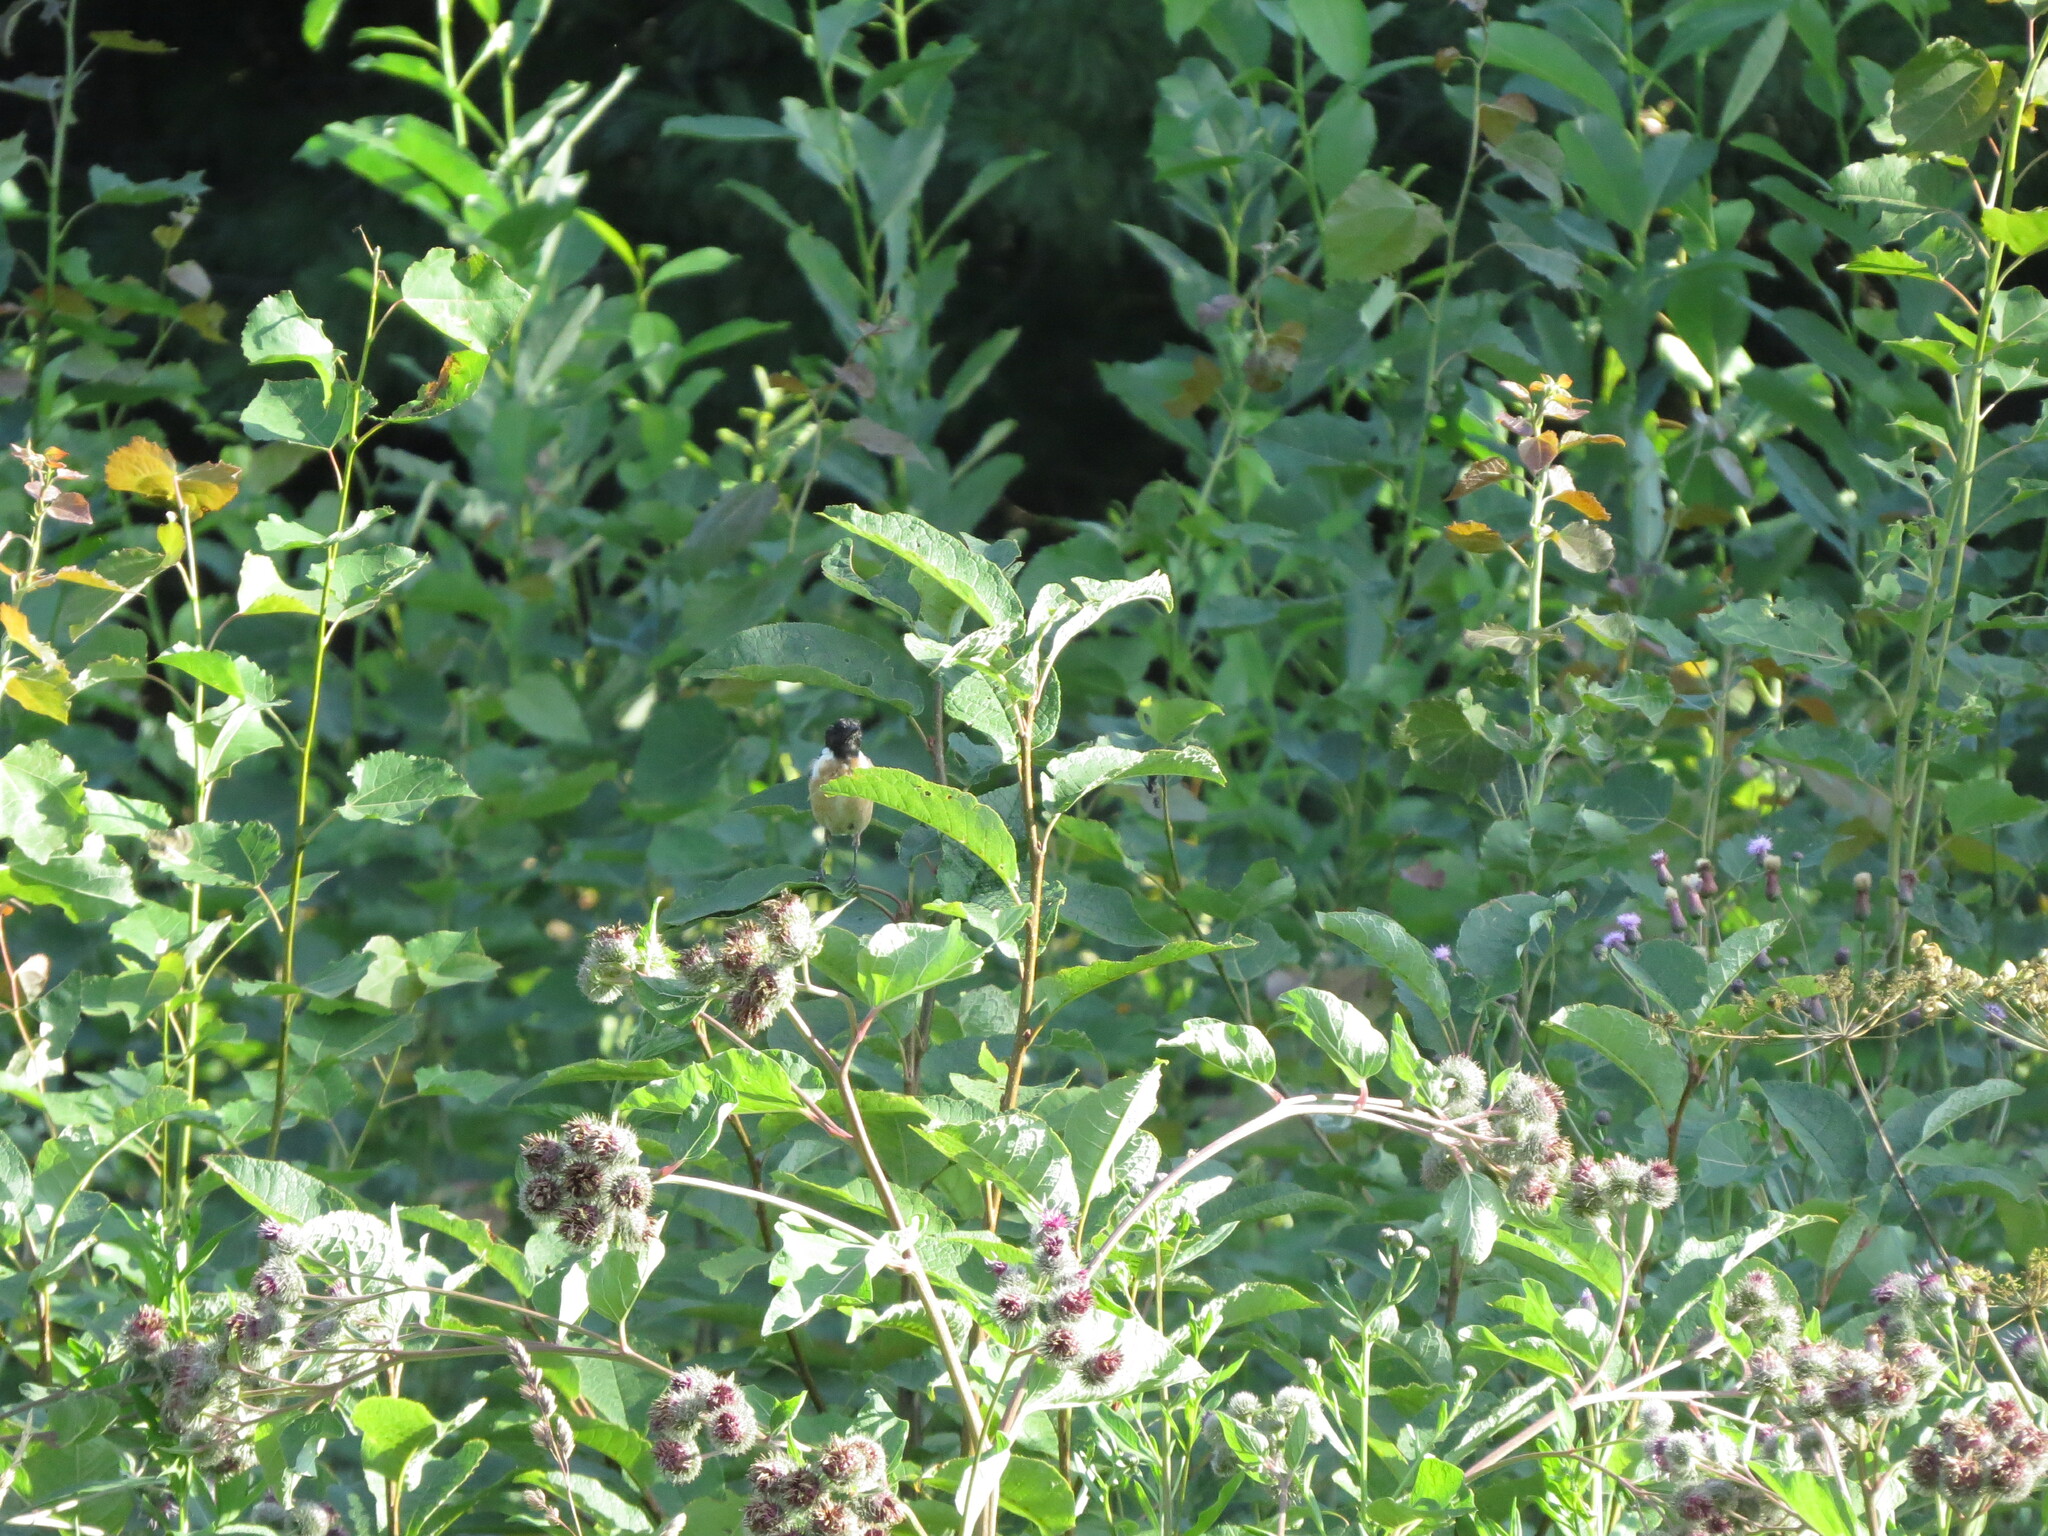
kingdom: Animalia
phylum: Chordata
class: Aves
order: Passeriformes
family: Muscicapidae
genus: Saxicola
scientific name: Saxicola maurus
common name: Siberian stonechat
